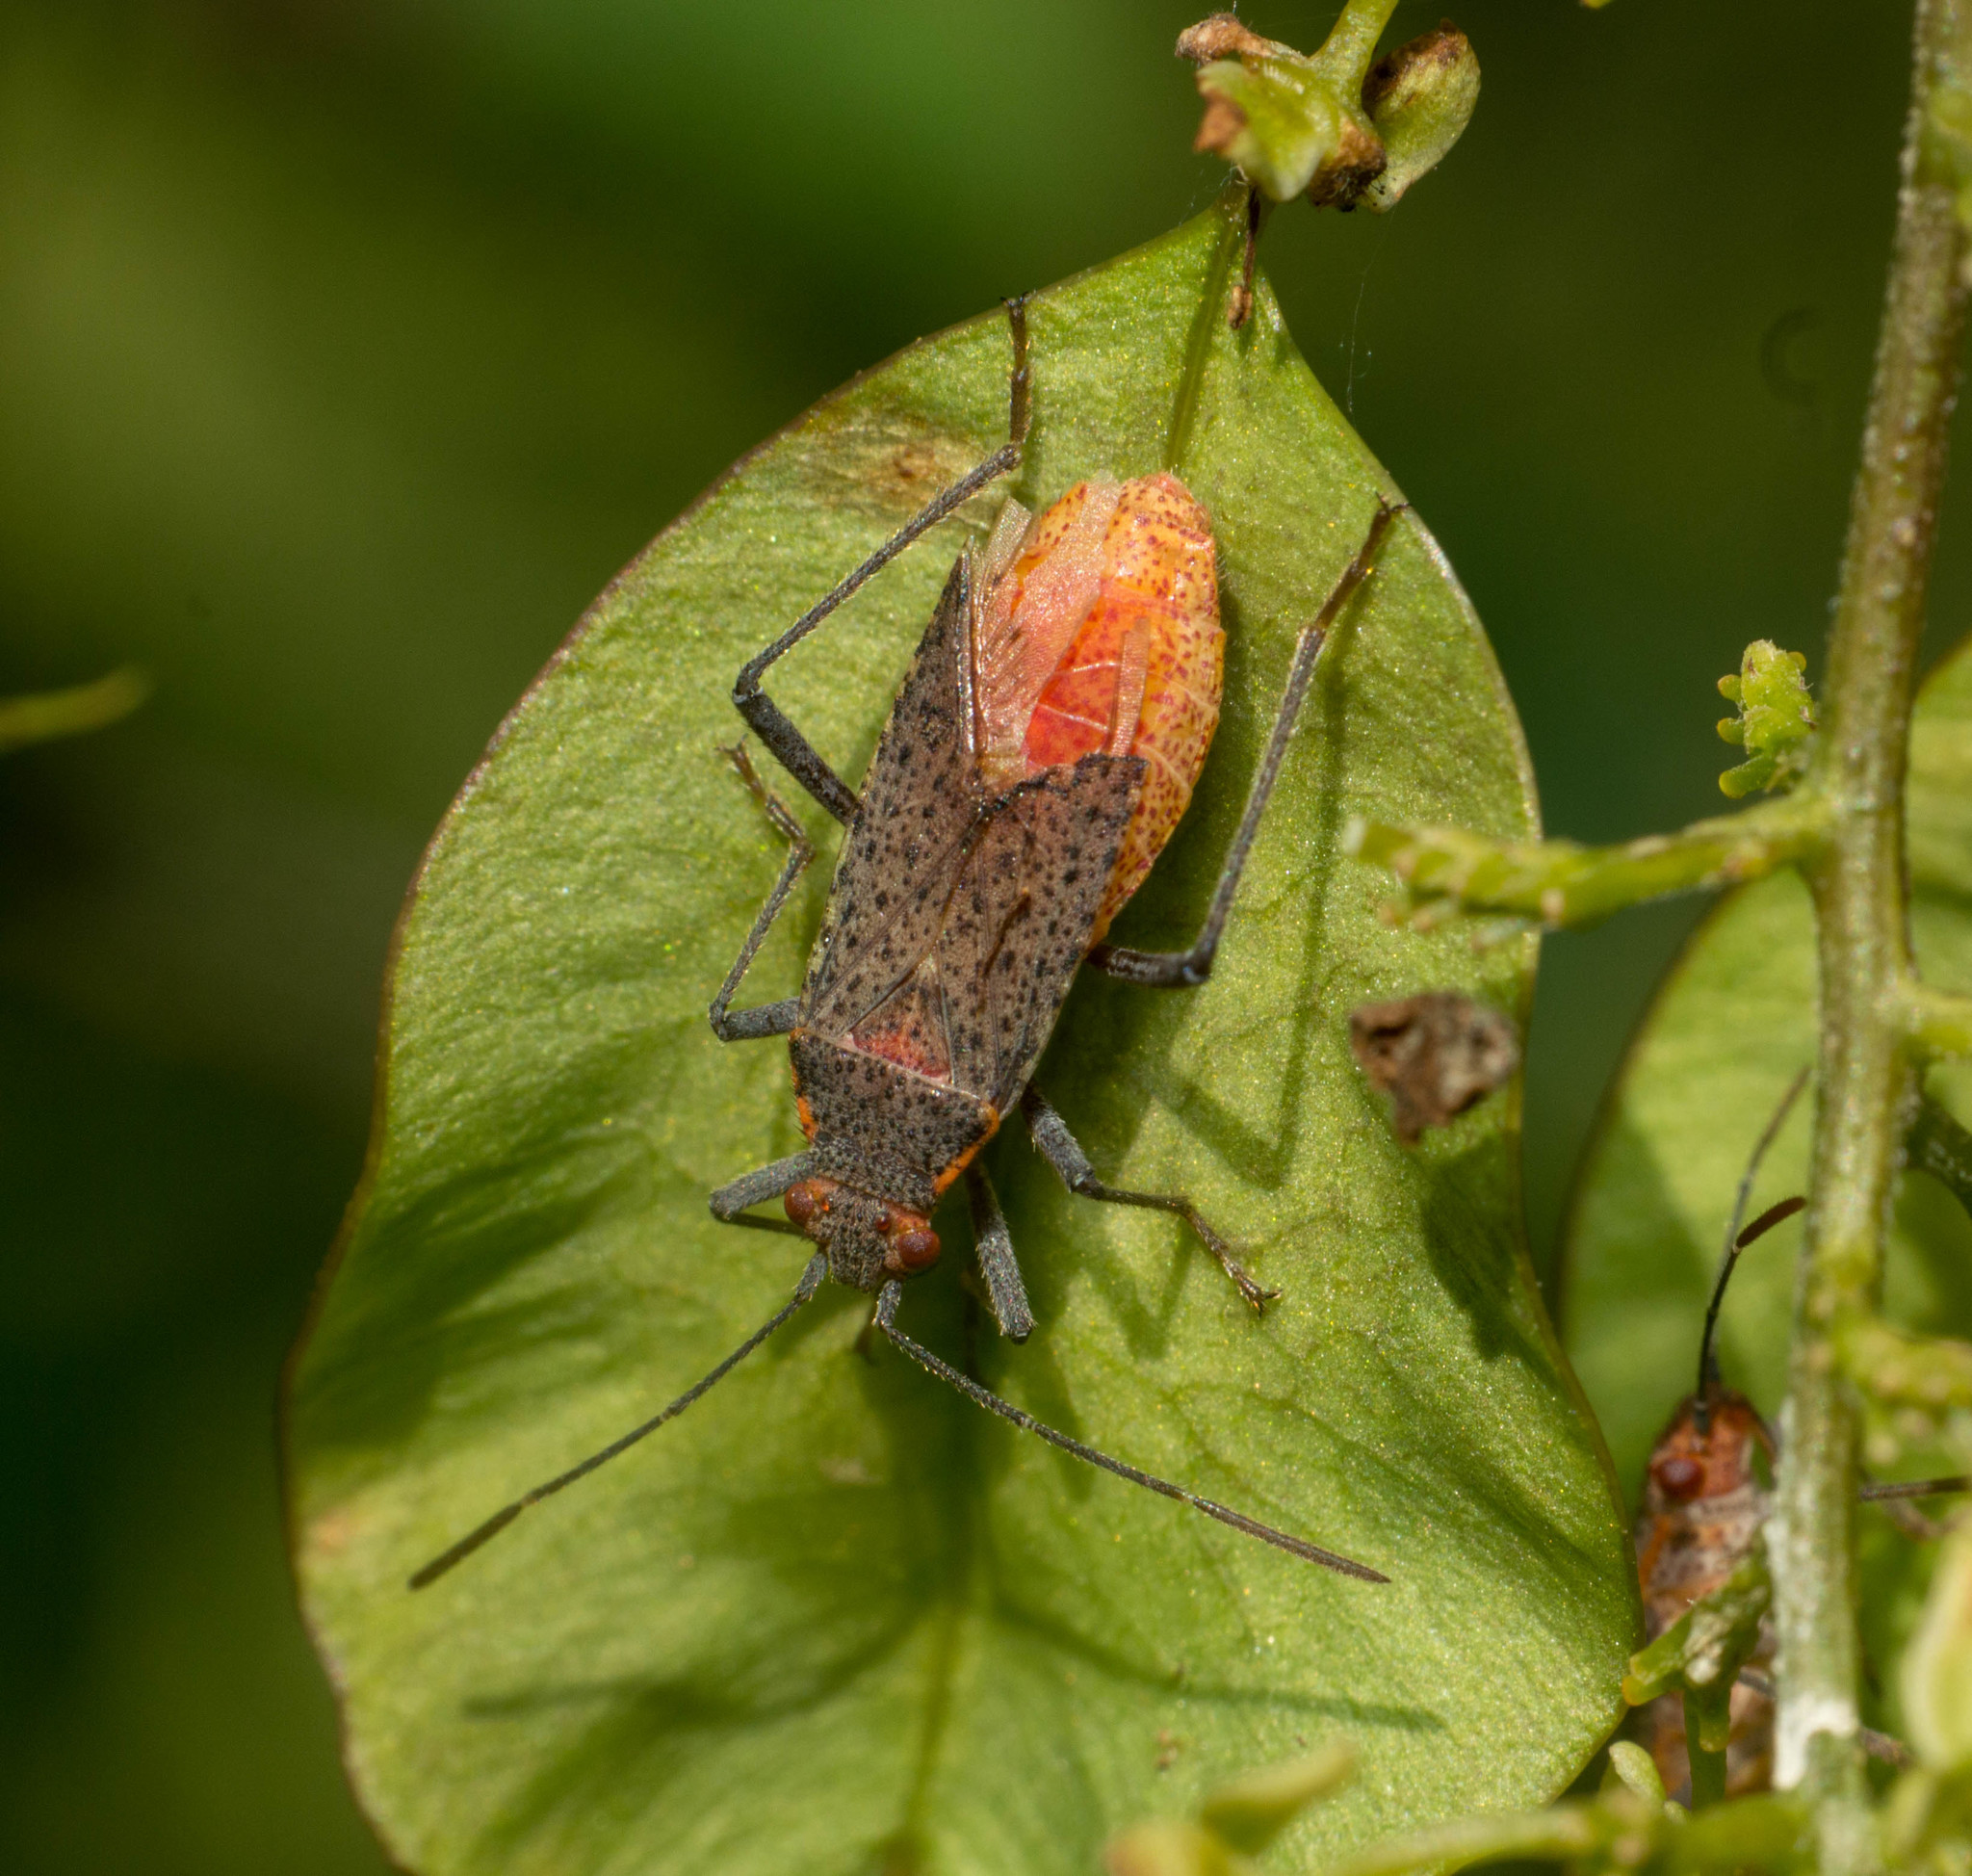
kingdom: Animalia
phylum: Arthropoda
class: Insecta
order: Hemiptera
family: Rhopalidae
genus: Jadera
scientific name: Jadera coturnix
